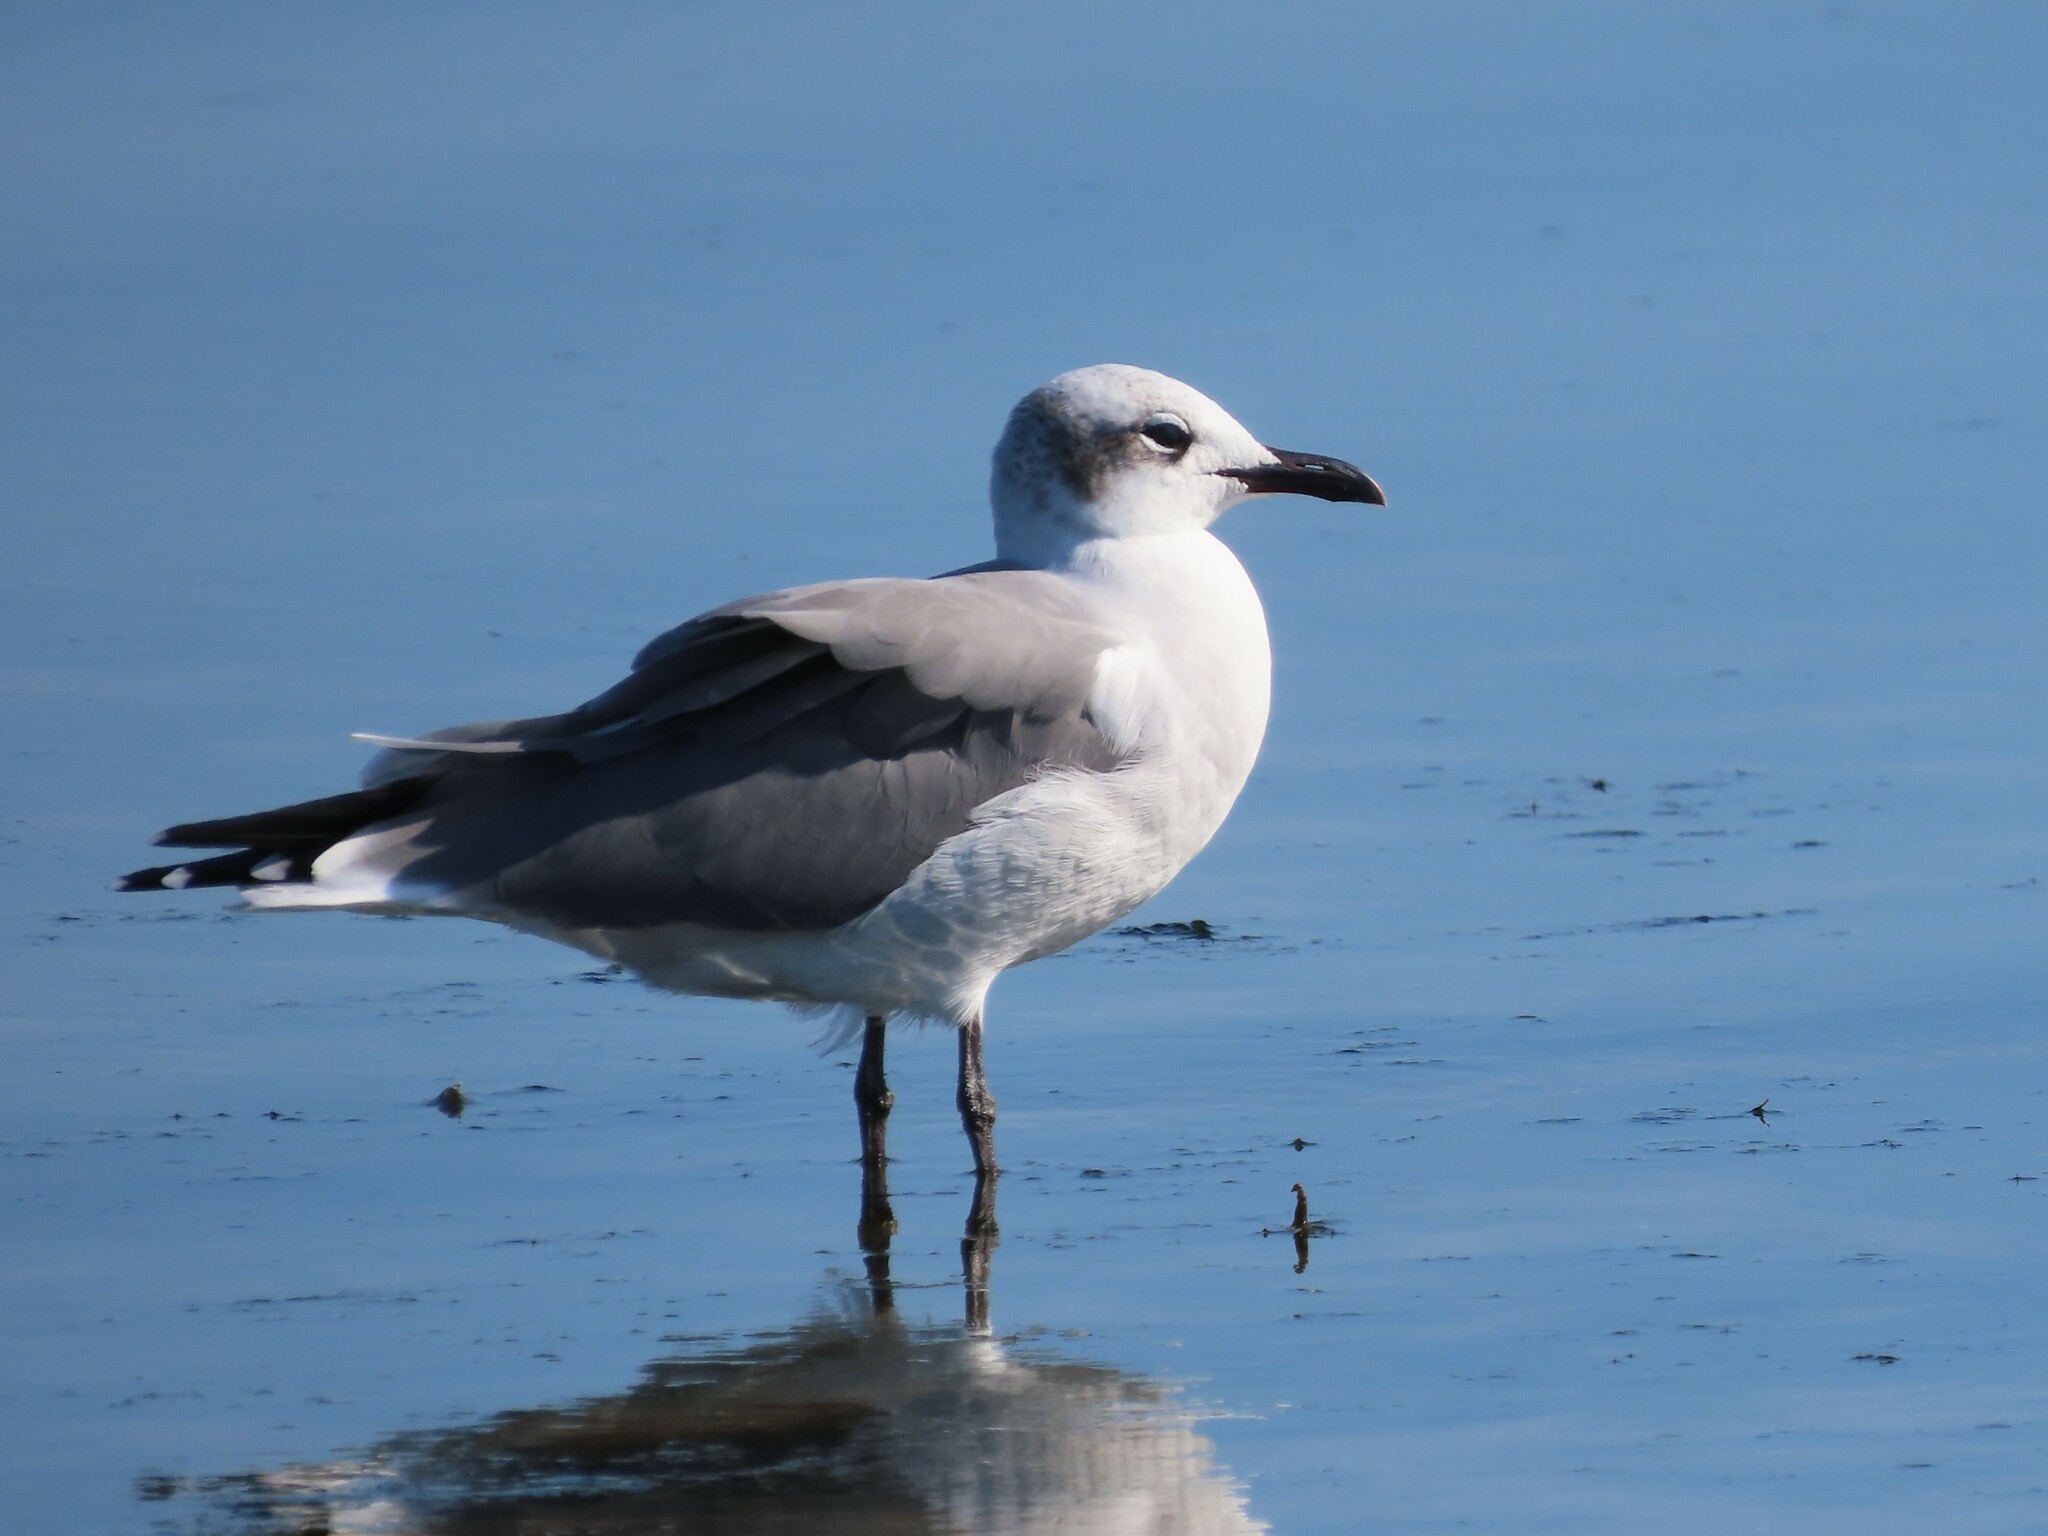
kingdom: Animalia
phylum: Chordata
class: Aves
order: Charadriiformes
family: Laridae
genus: Leucophaeus
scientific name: Leucophaeus atricilla
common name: Laughing gull
